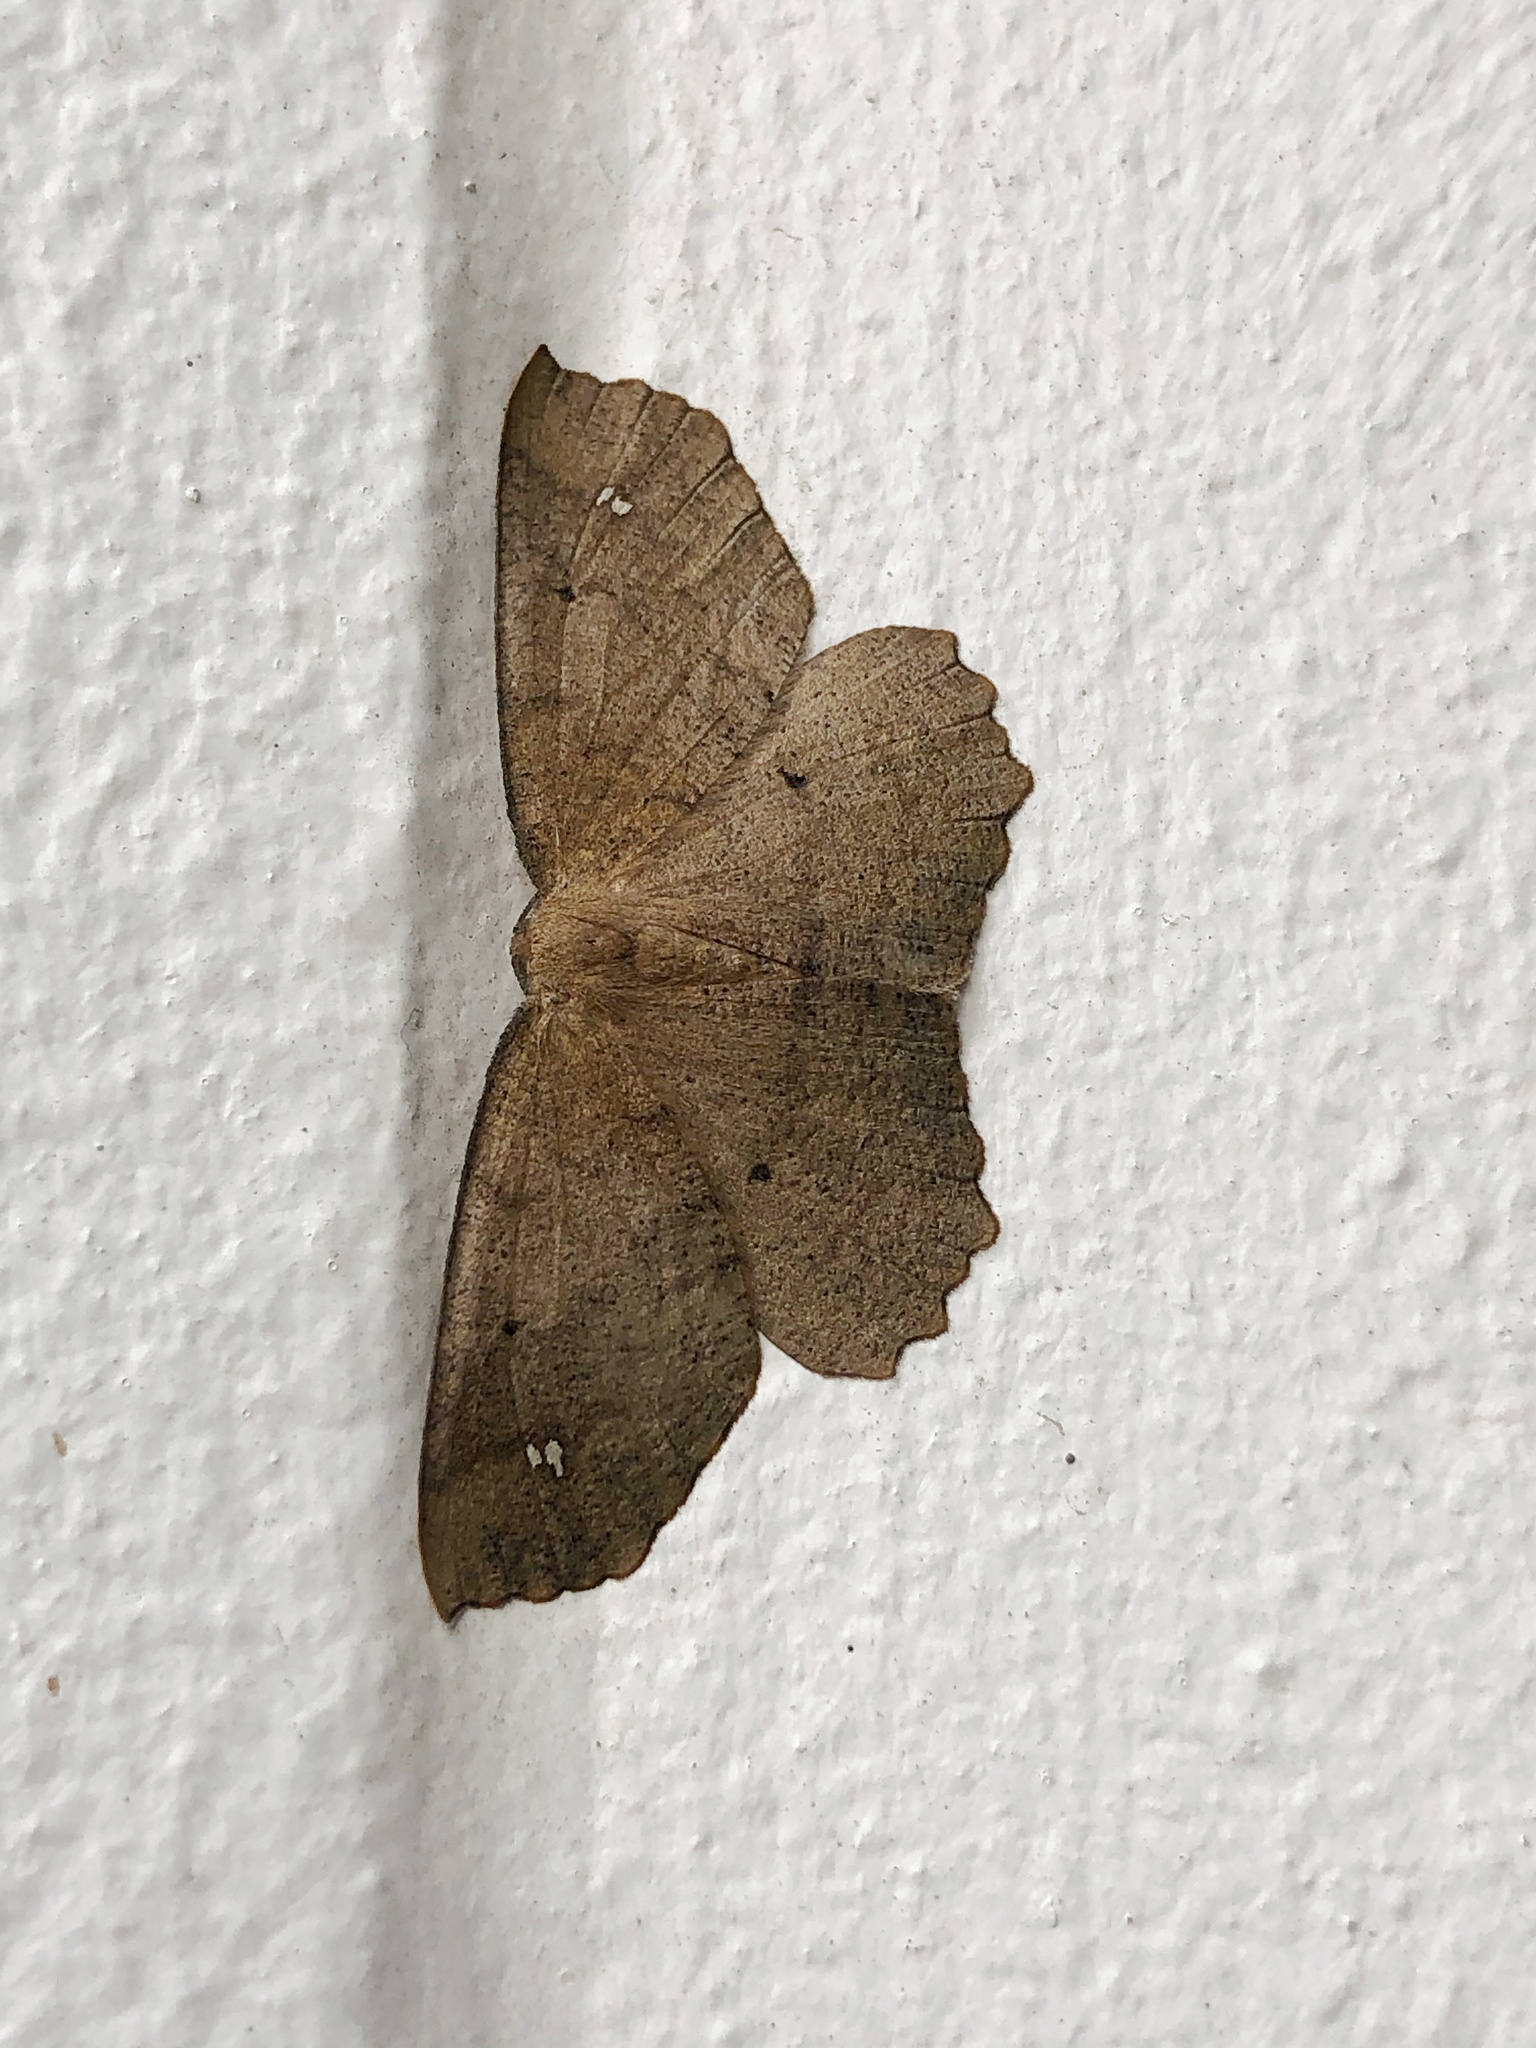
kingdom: Animalia
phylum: Arthropoda
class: Insecta
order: Lepidoptera
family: Geometridae
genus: Xyridacma
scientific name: Xyridacma ustaria
